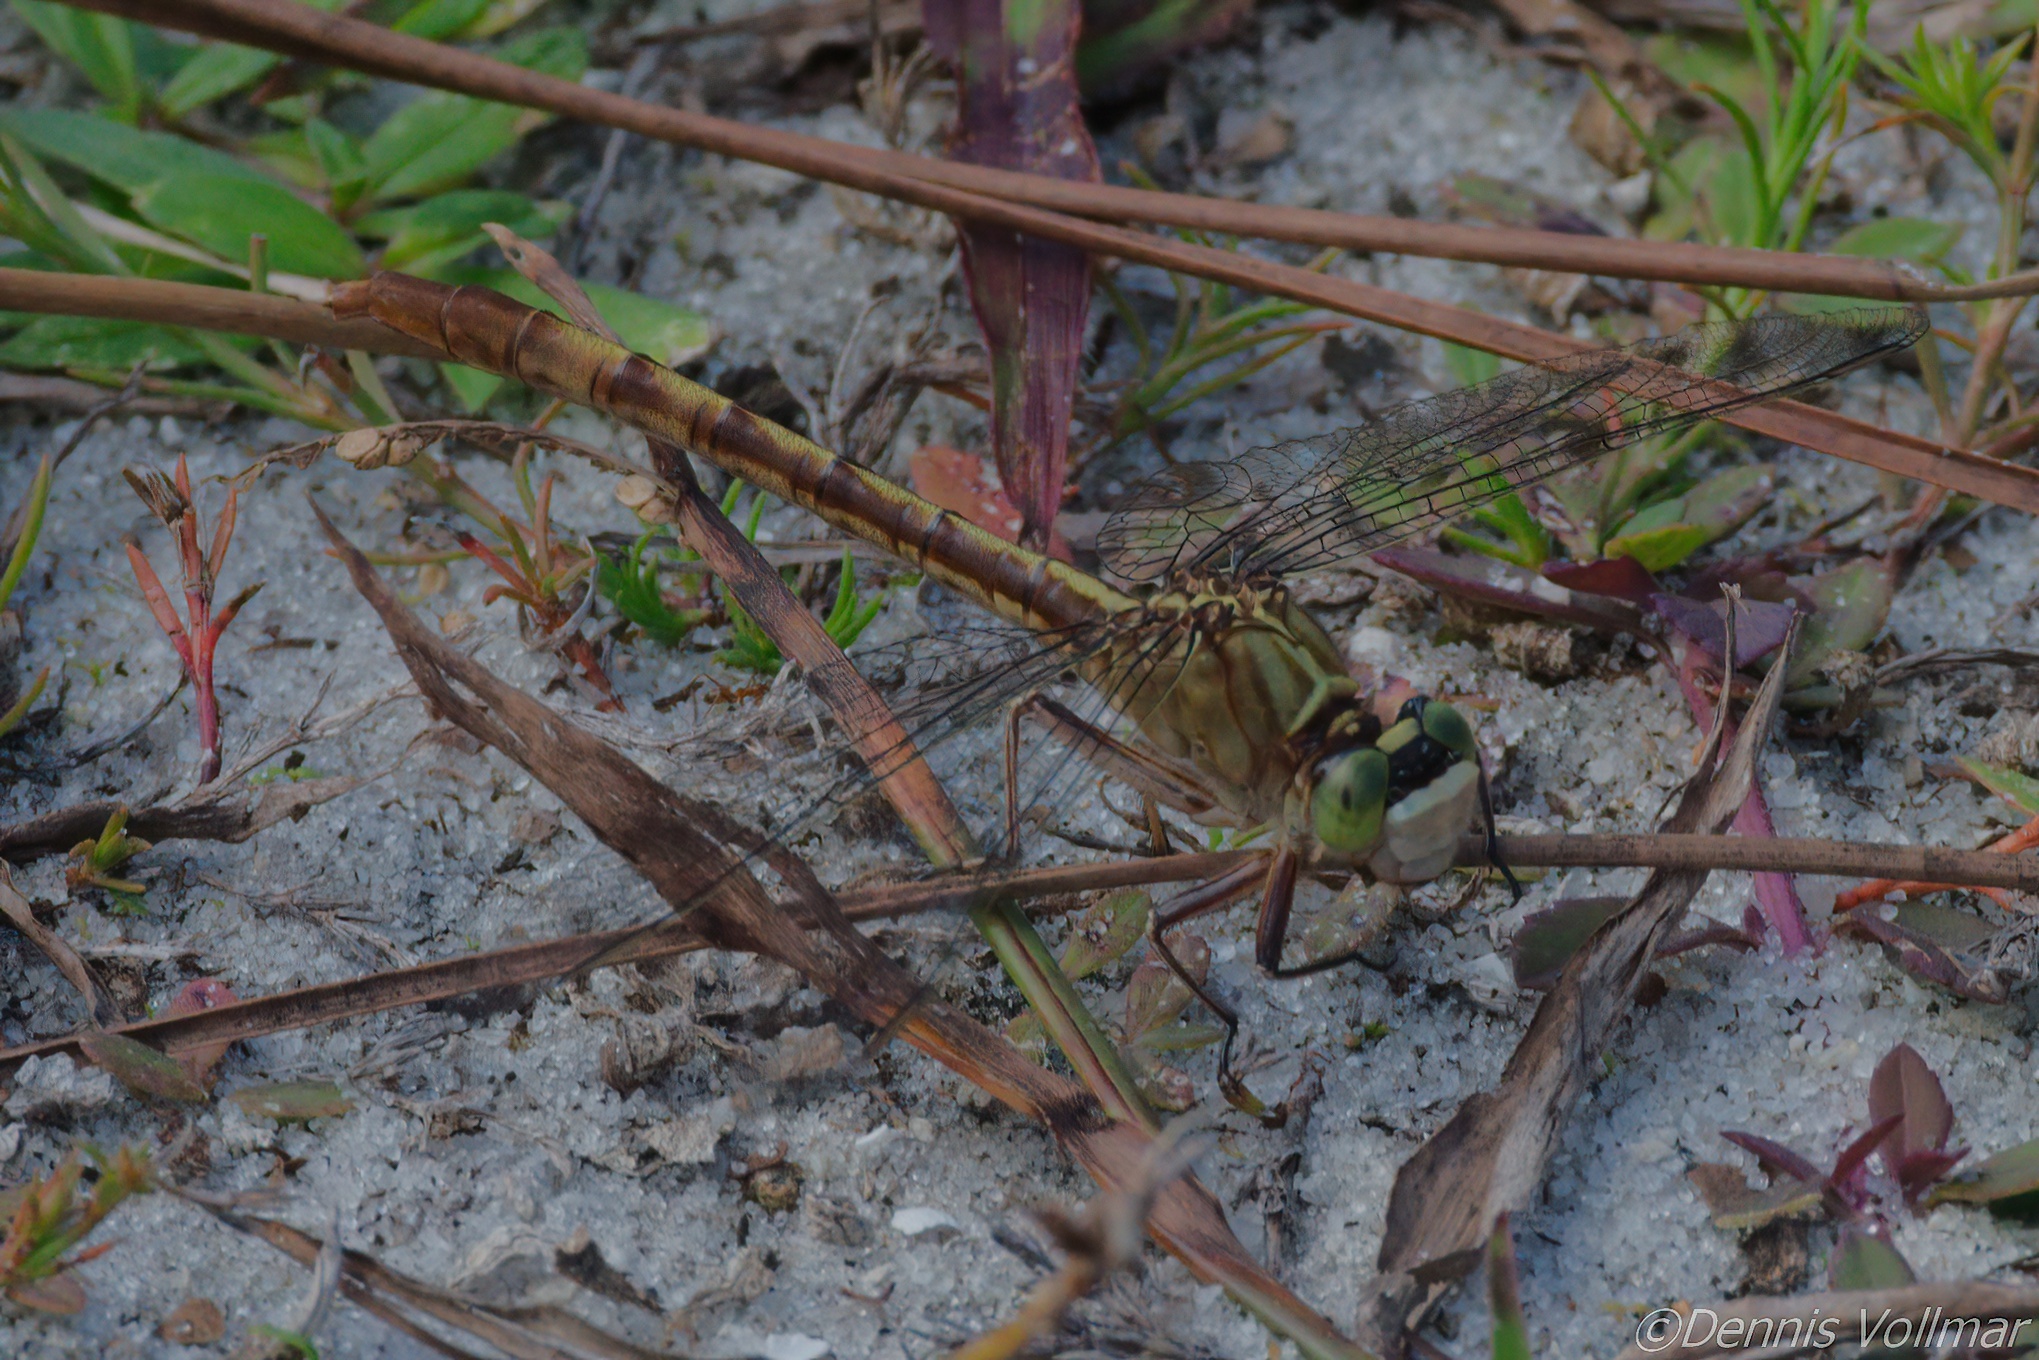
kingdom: Animalia
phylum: Arthropoda
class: Insecta
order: Odonata
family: Gomphidae
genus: Arigomphus
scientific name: Arigomphus pallidus
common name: Gray-green clubtail
